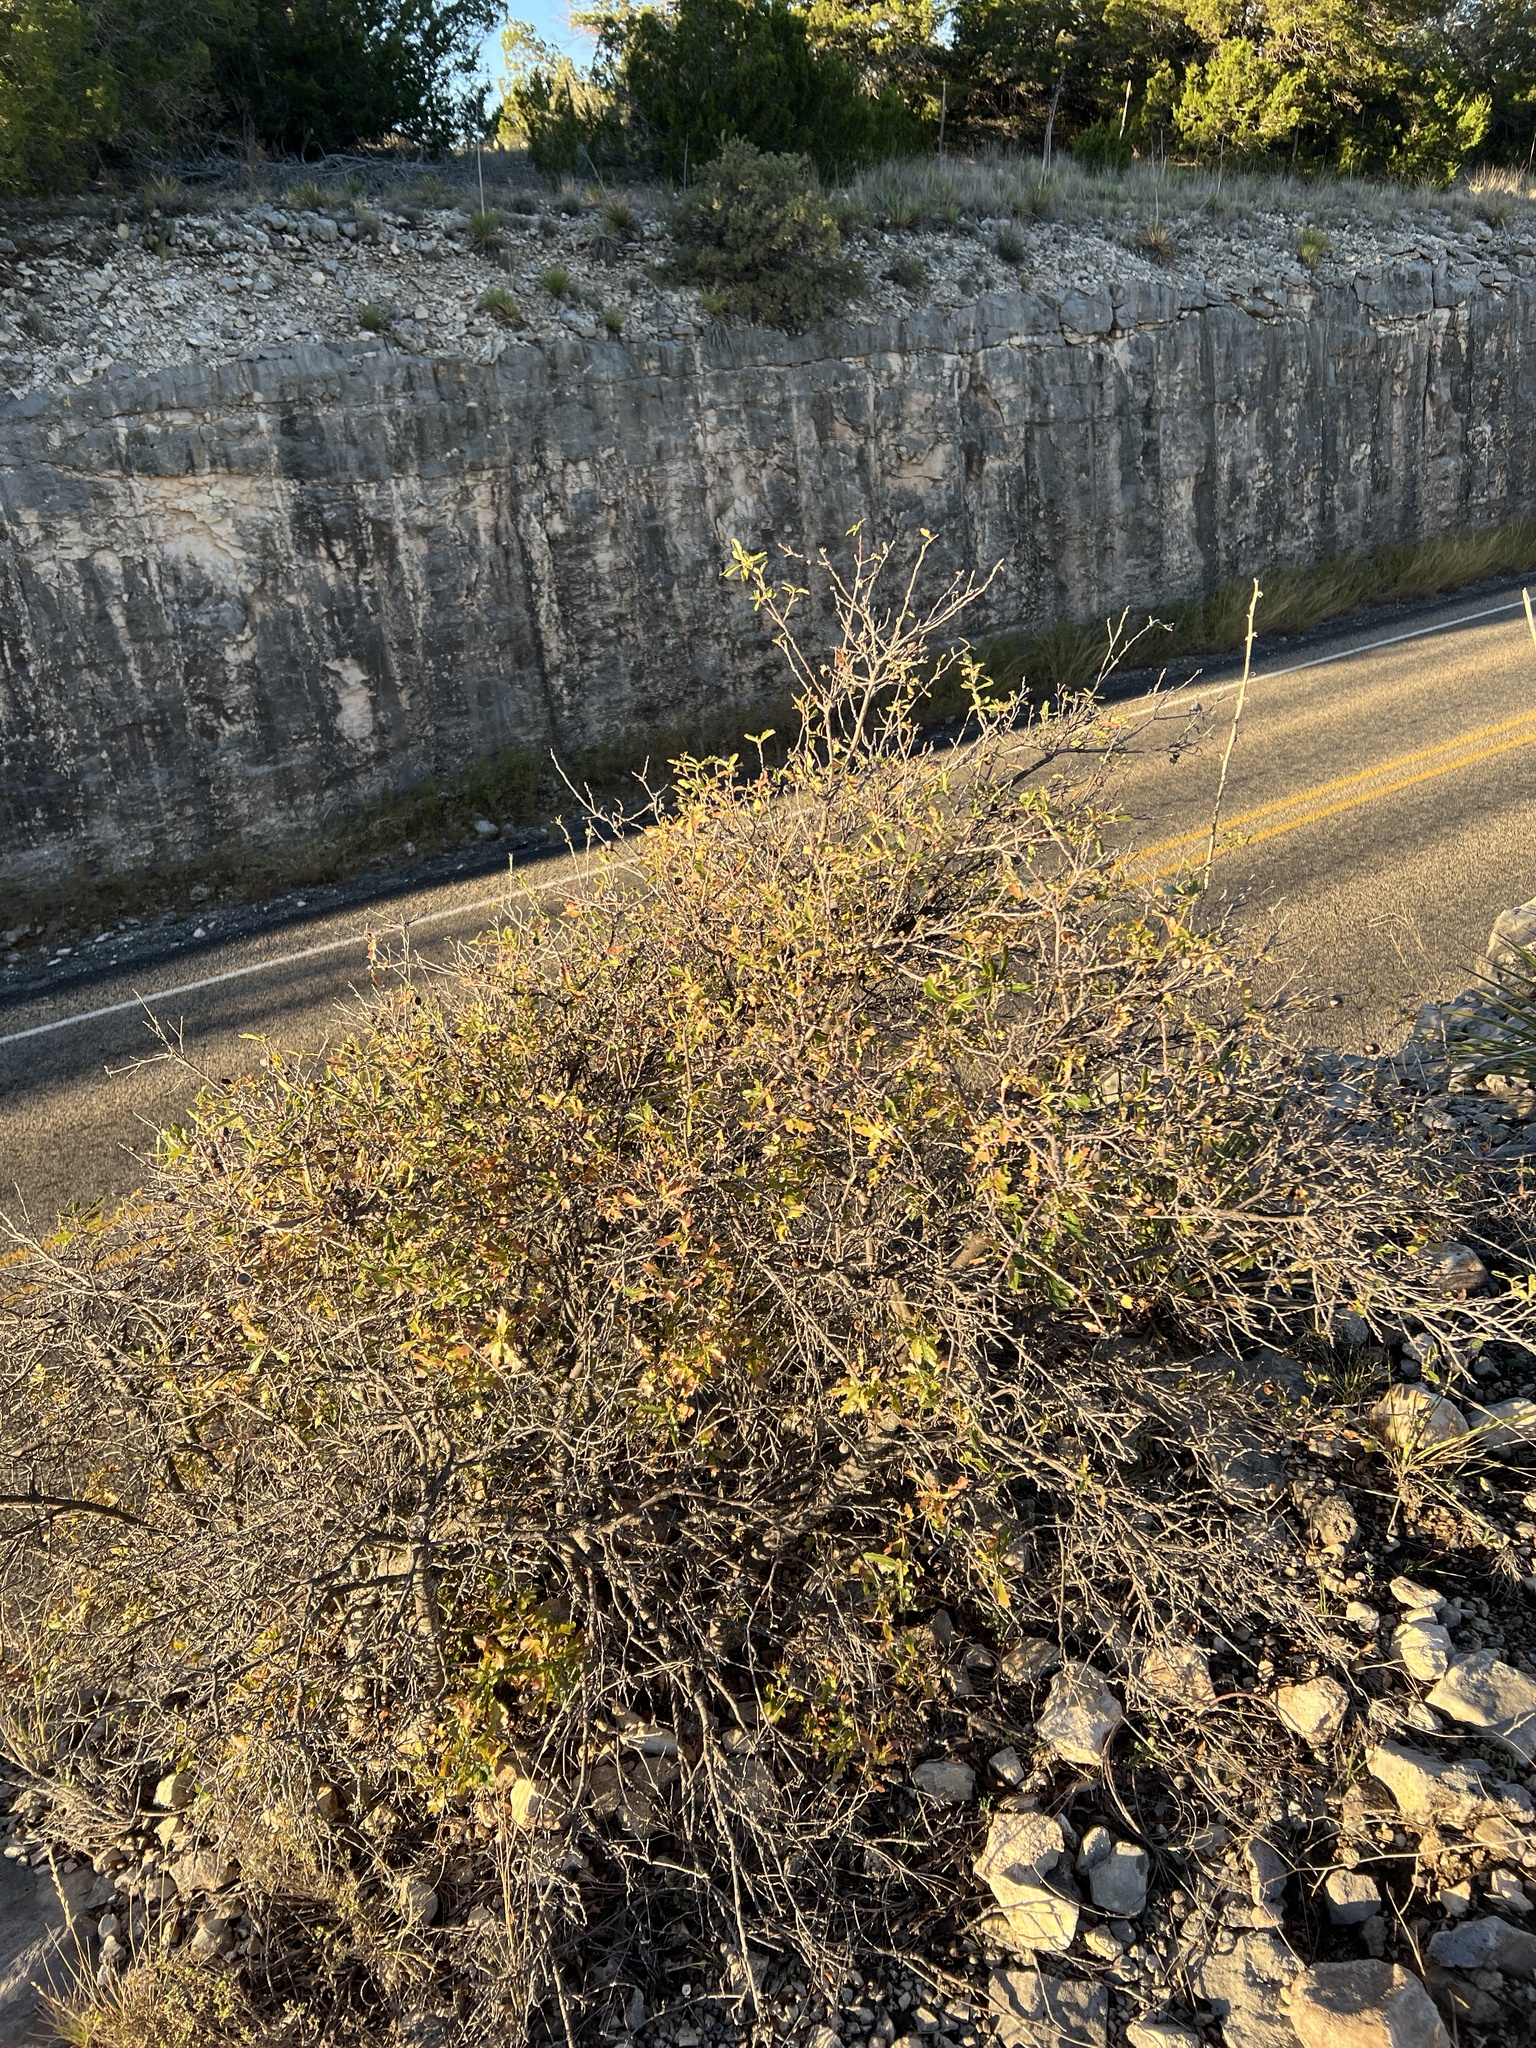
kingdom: Plantae
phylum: Tracheophyta
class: Magnoliopsida
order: Fagales
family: Fagaceae
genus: Quercus
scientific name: Quercus vaseyana
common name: Sandpaper oak
